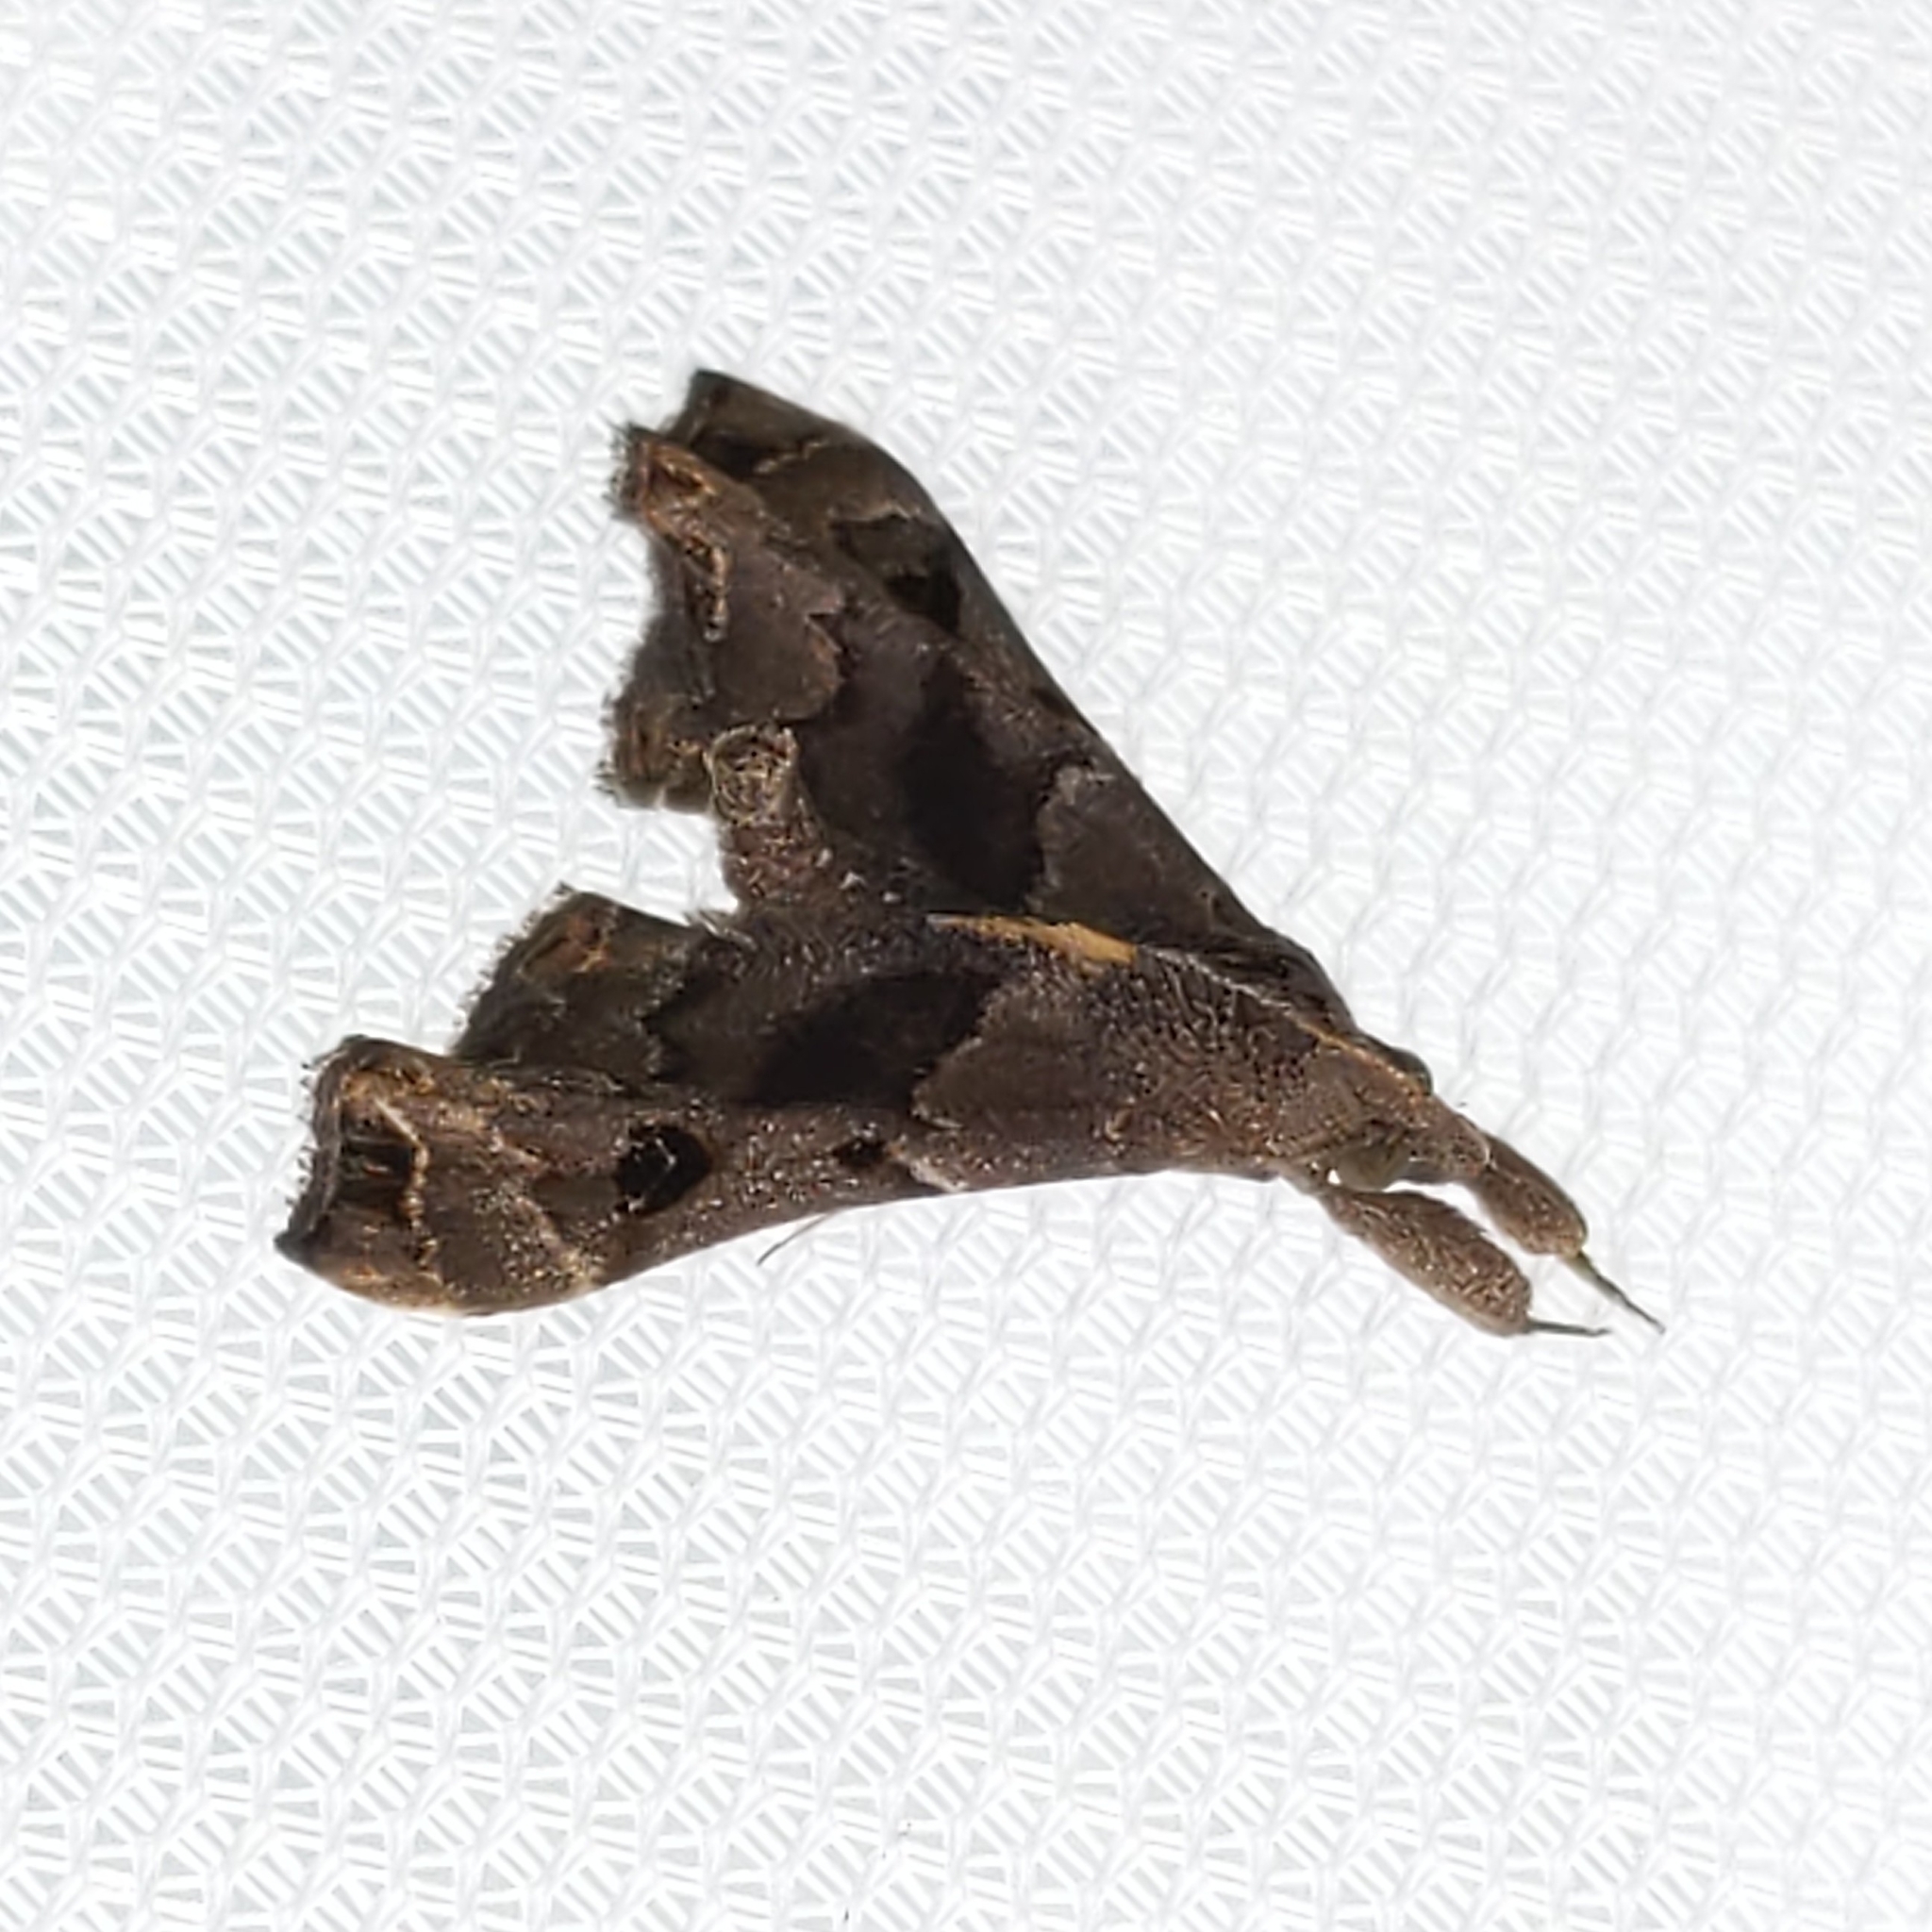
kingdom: Animalia
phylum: Arthropoda
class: Insecta
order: Lepidoptera
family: Erebidae
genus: Palthis
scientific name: Palthis asopialis
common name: Faint-spotted palthis moth
